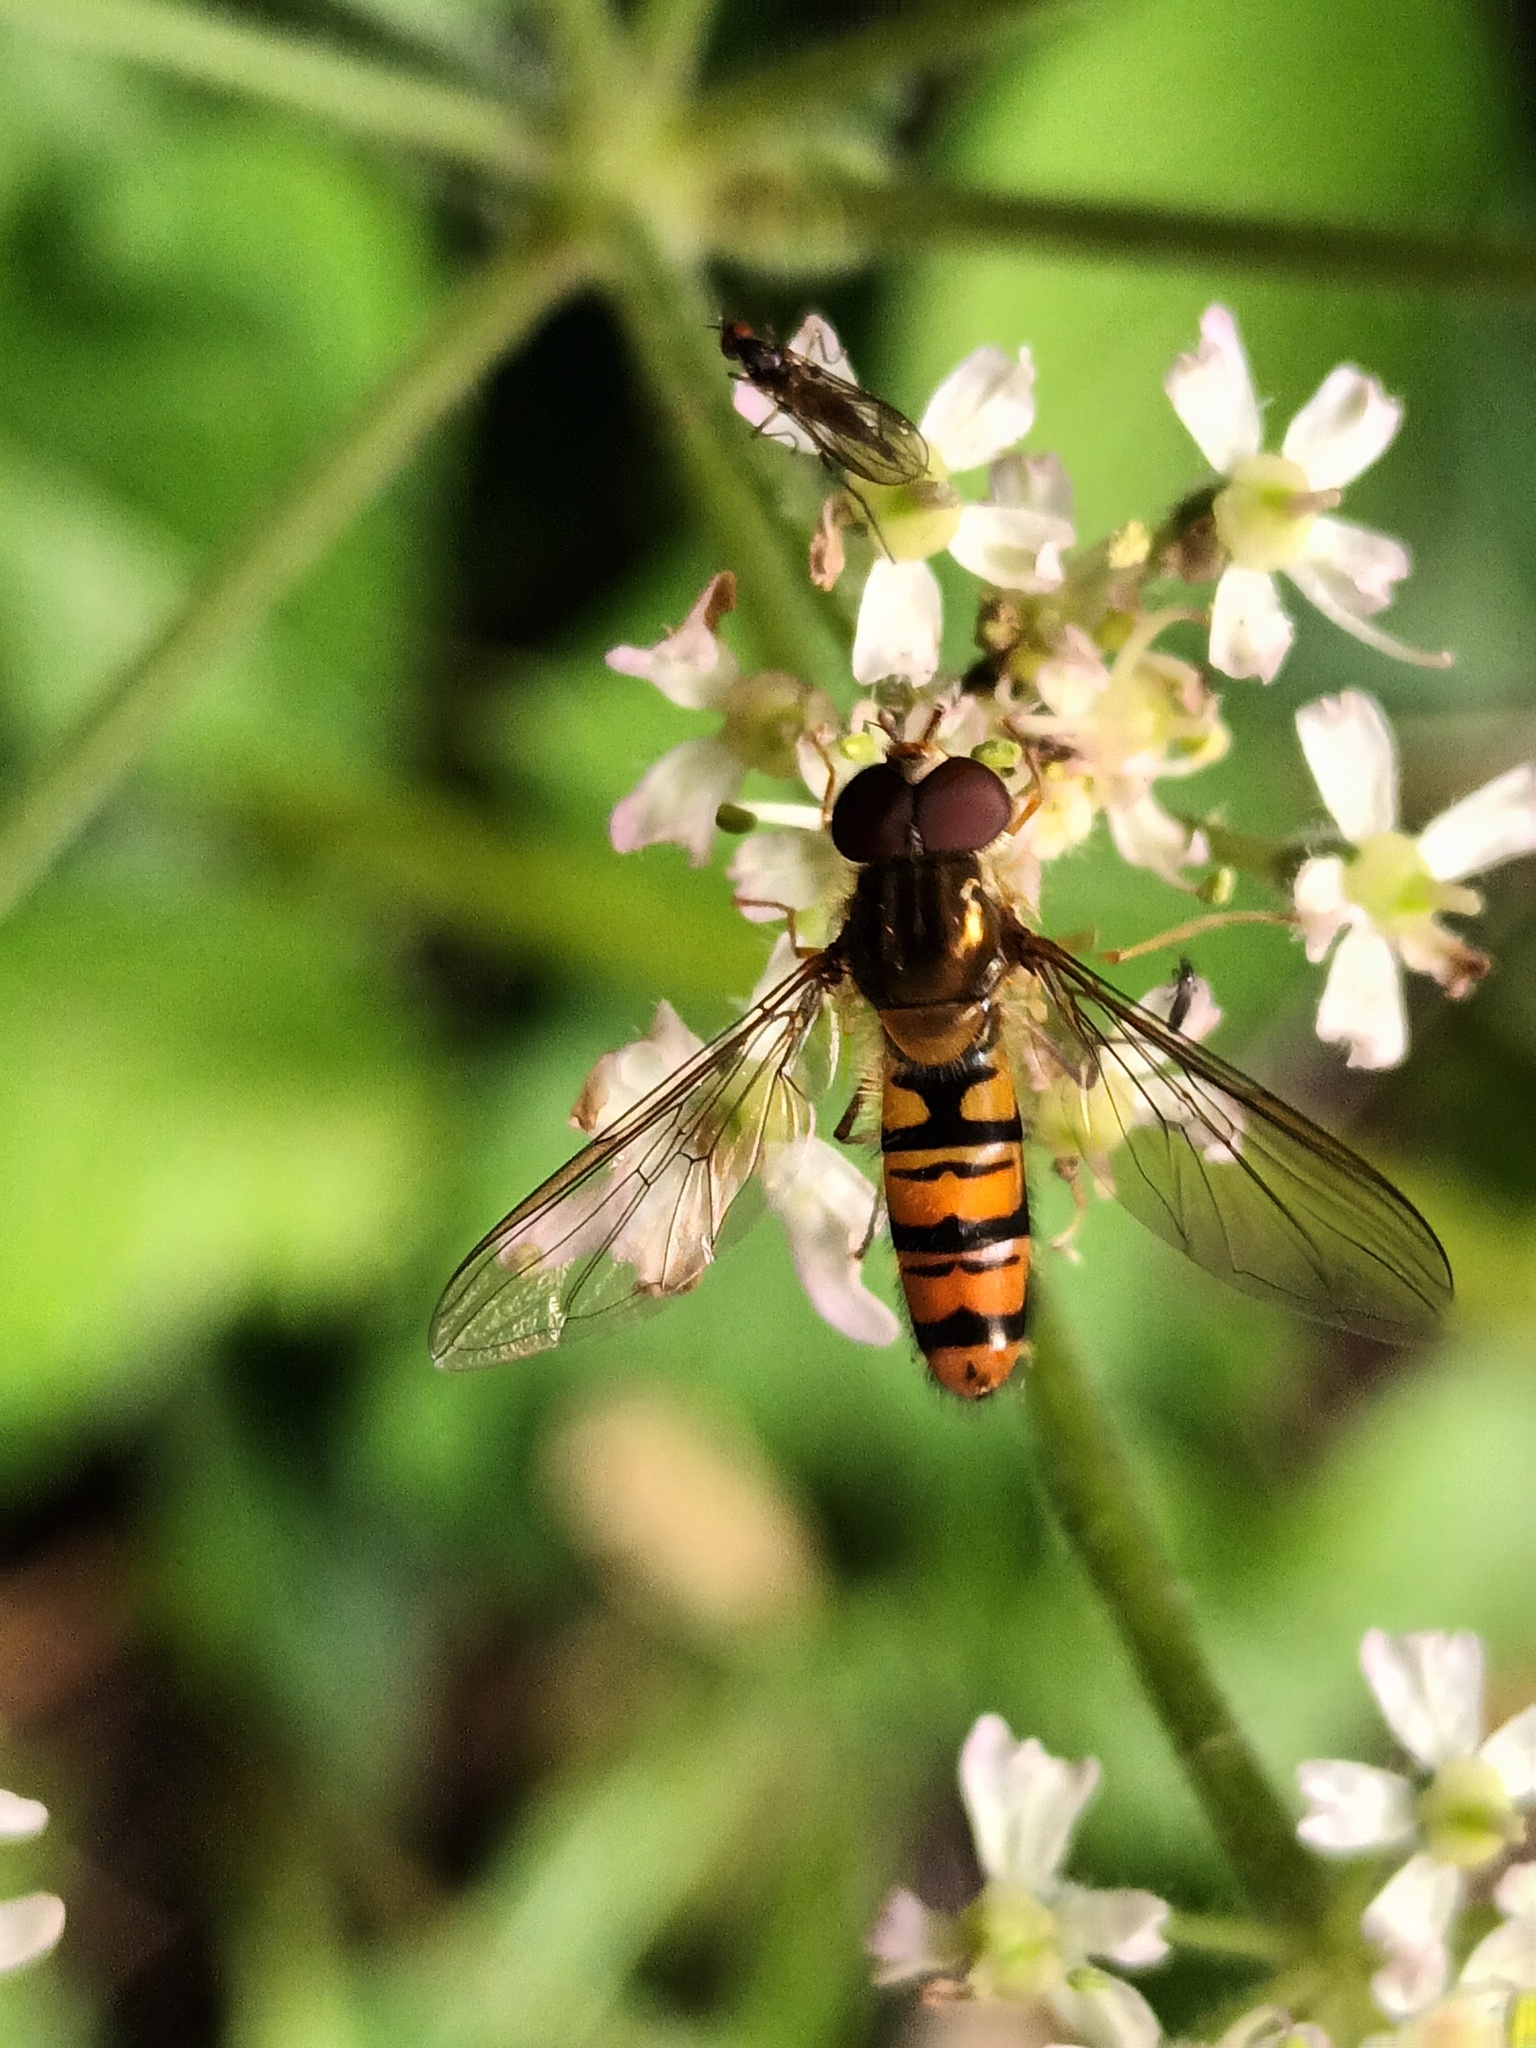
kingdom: Animalia
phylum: Arthropoda
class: Insecta
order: Diptera
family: Syrphidae
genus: Episyrphus
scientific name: Episyrphus balteatus
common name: Marmalade hoverfly
